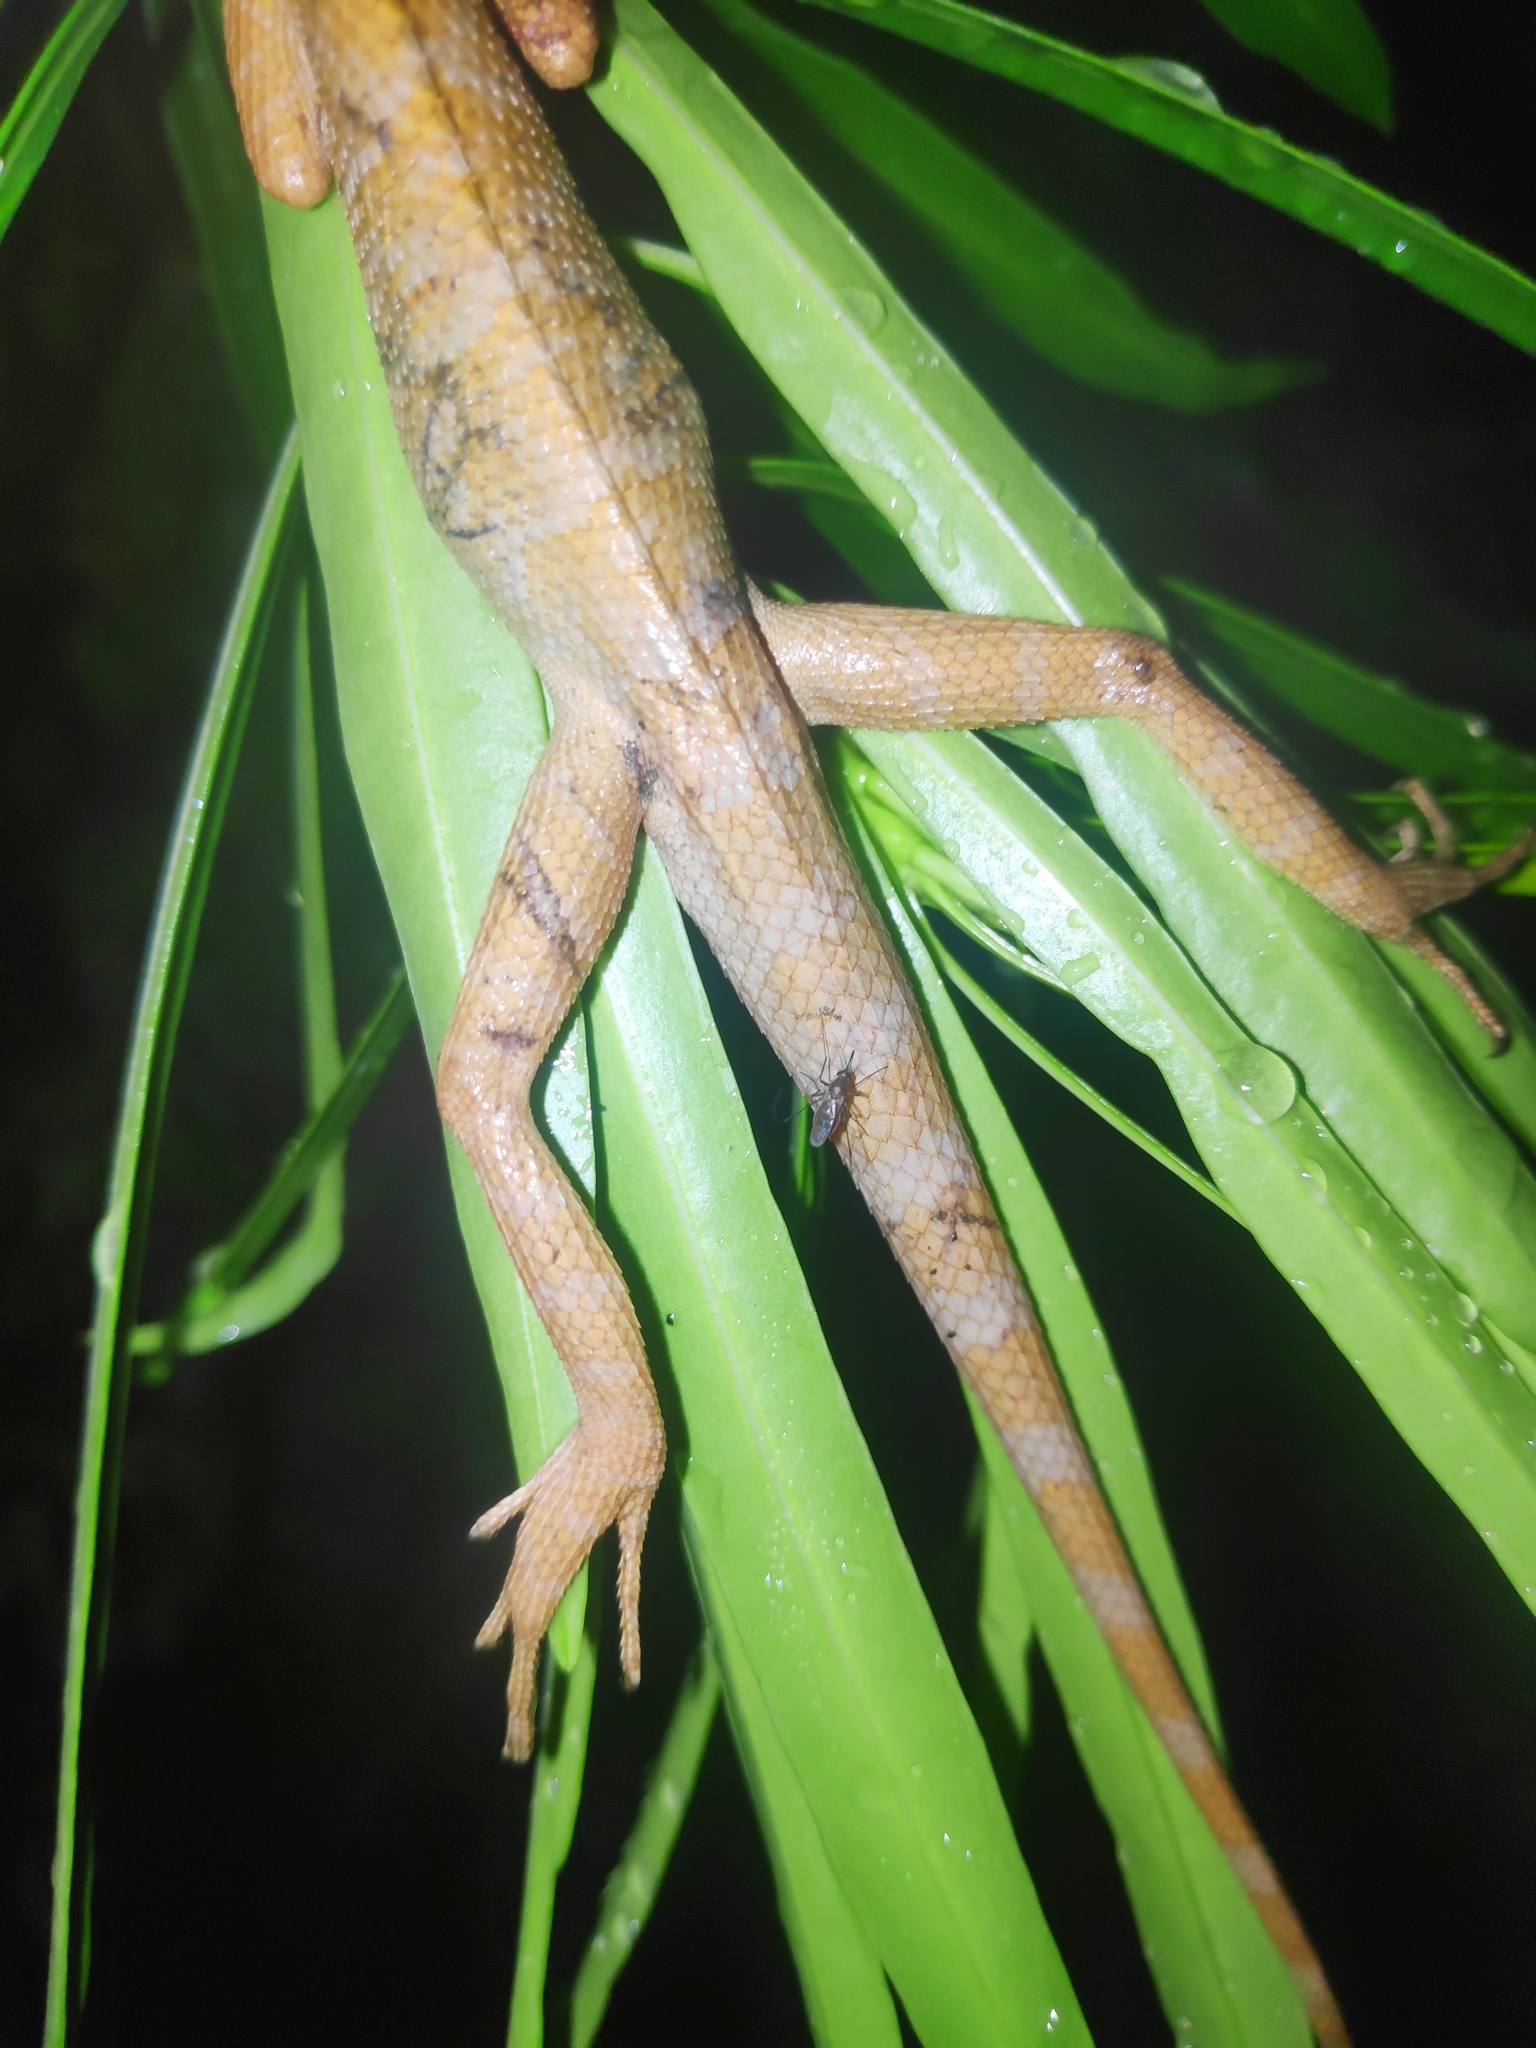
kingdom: Animalia
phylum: Chordata
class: Squamata
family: Agamidae
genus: Calotes
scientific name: Calotes versicolor
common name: Oriental garden lizard
